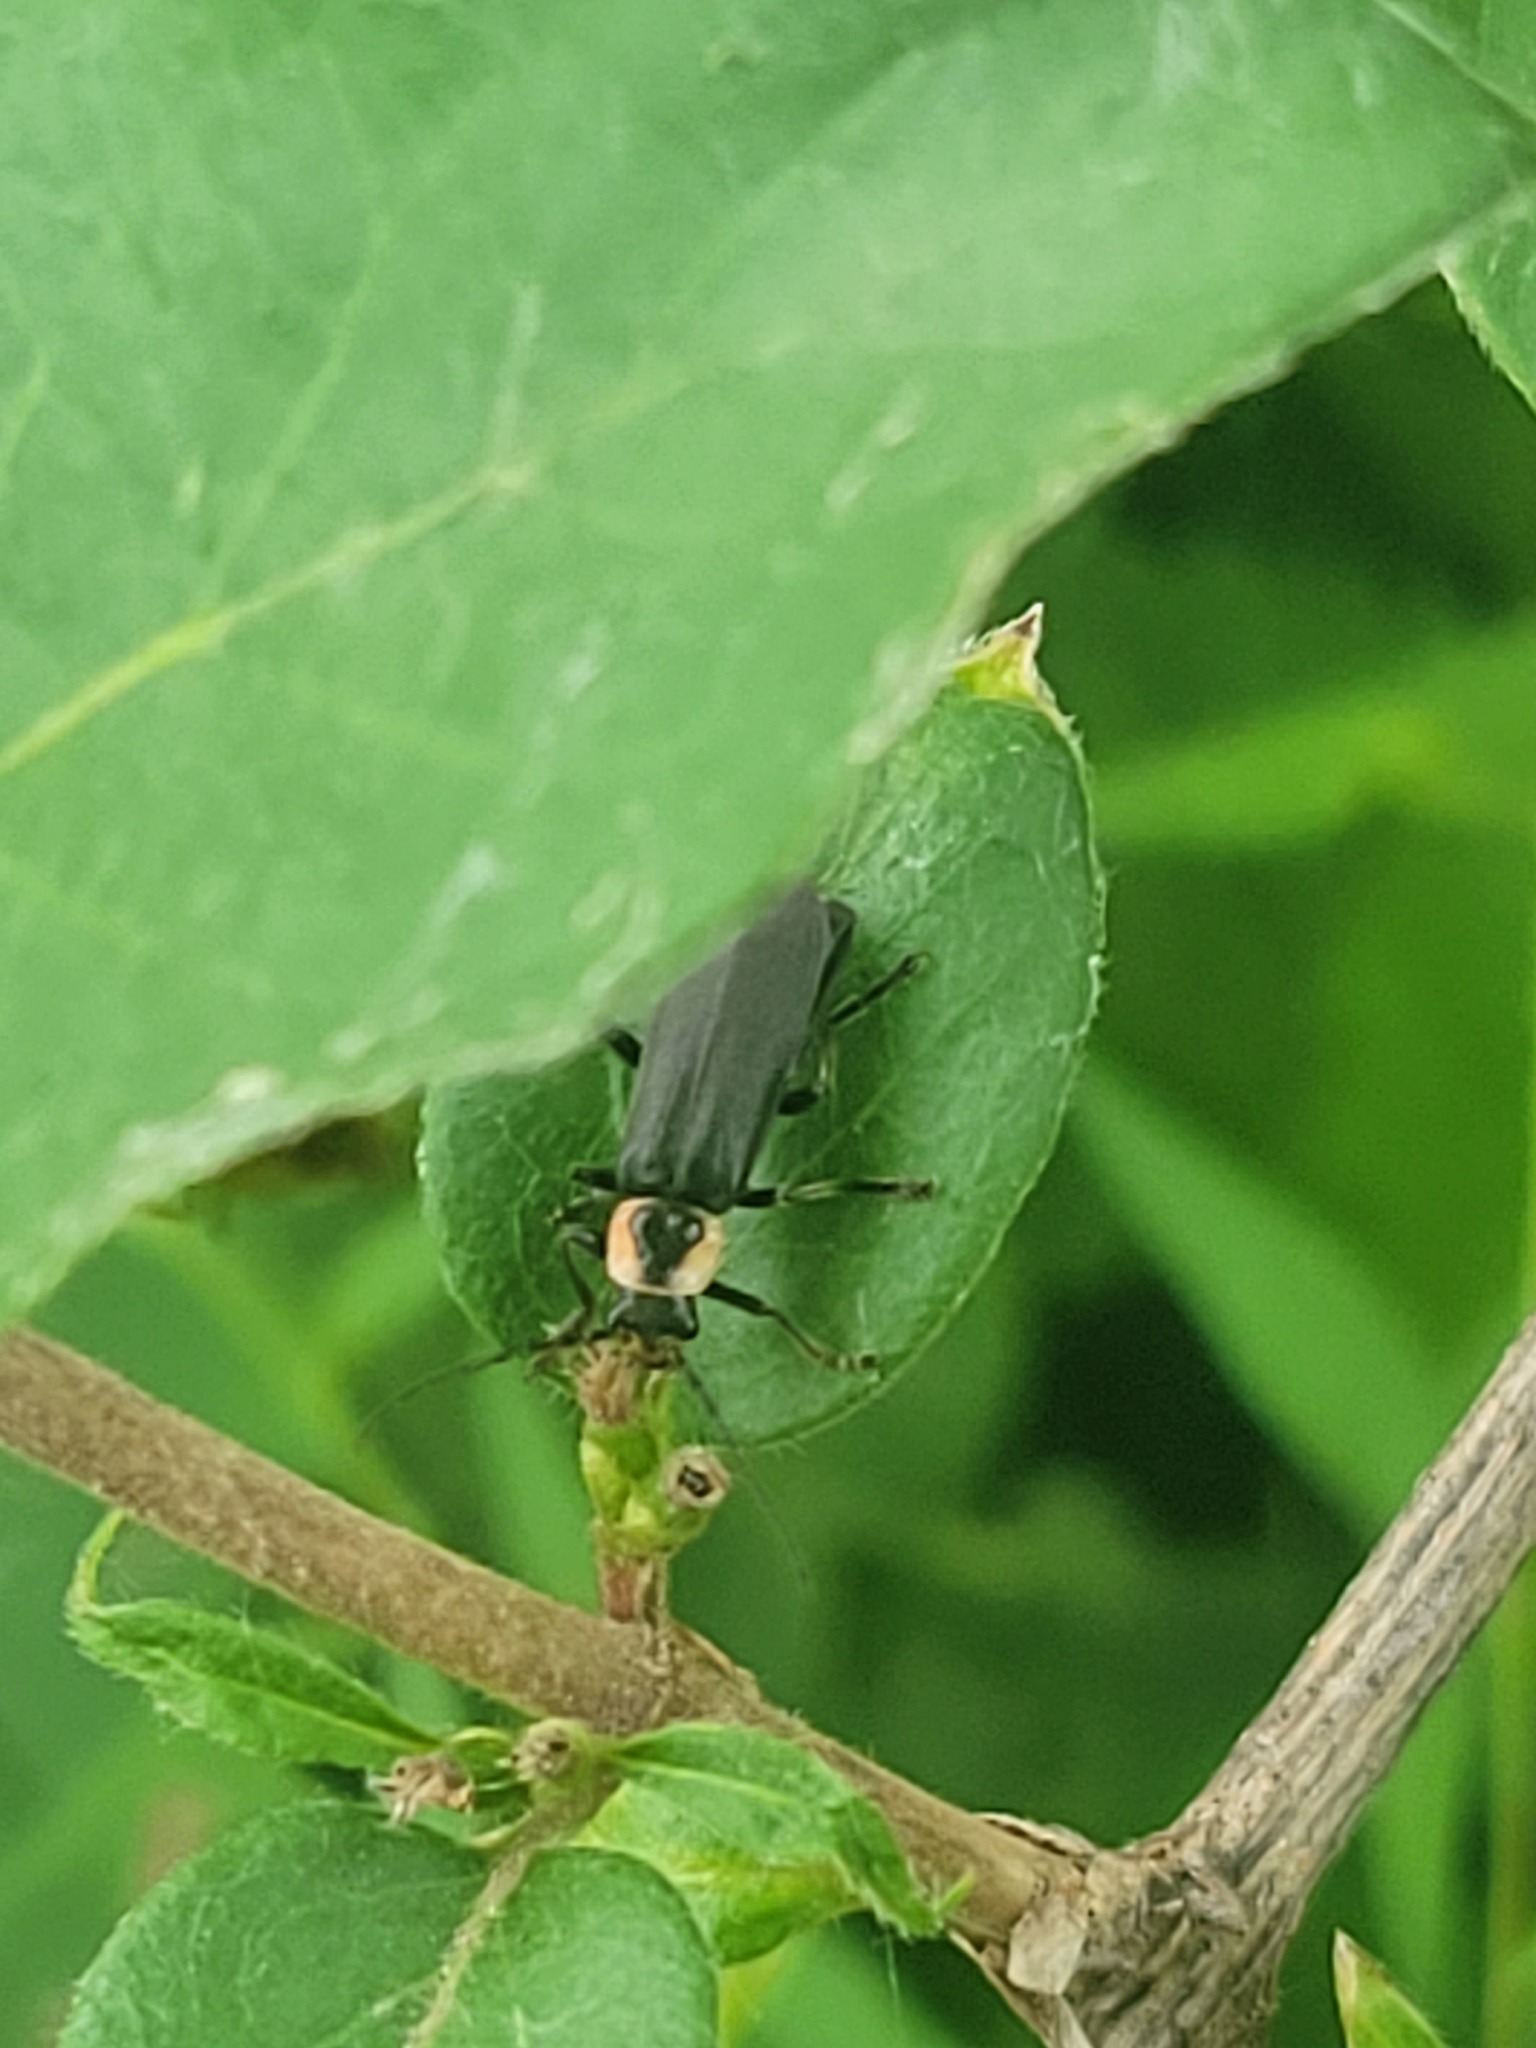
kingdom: Animalia
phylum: Arthropoda
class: Insecta
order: Coleoptera
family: Cantharidae
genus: Rhaxonycha
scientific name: Rhaxonycha carolina
